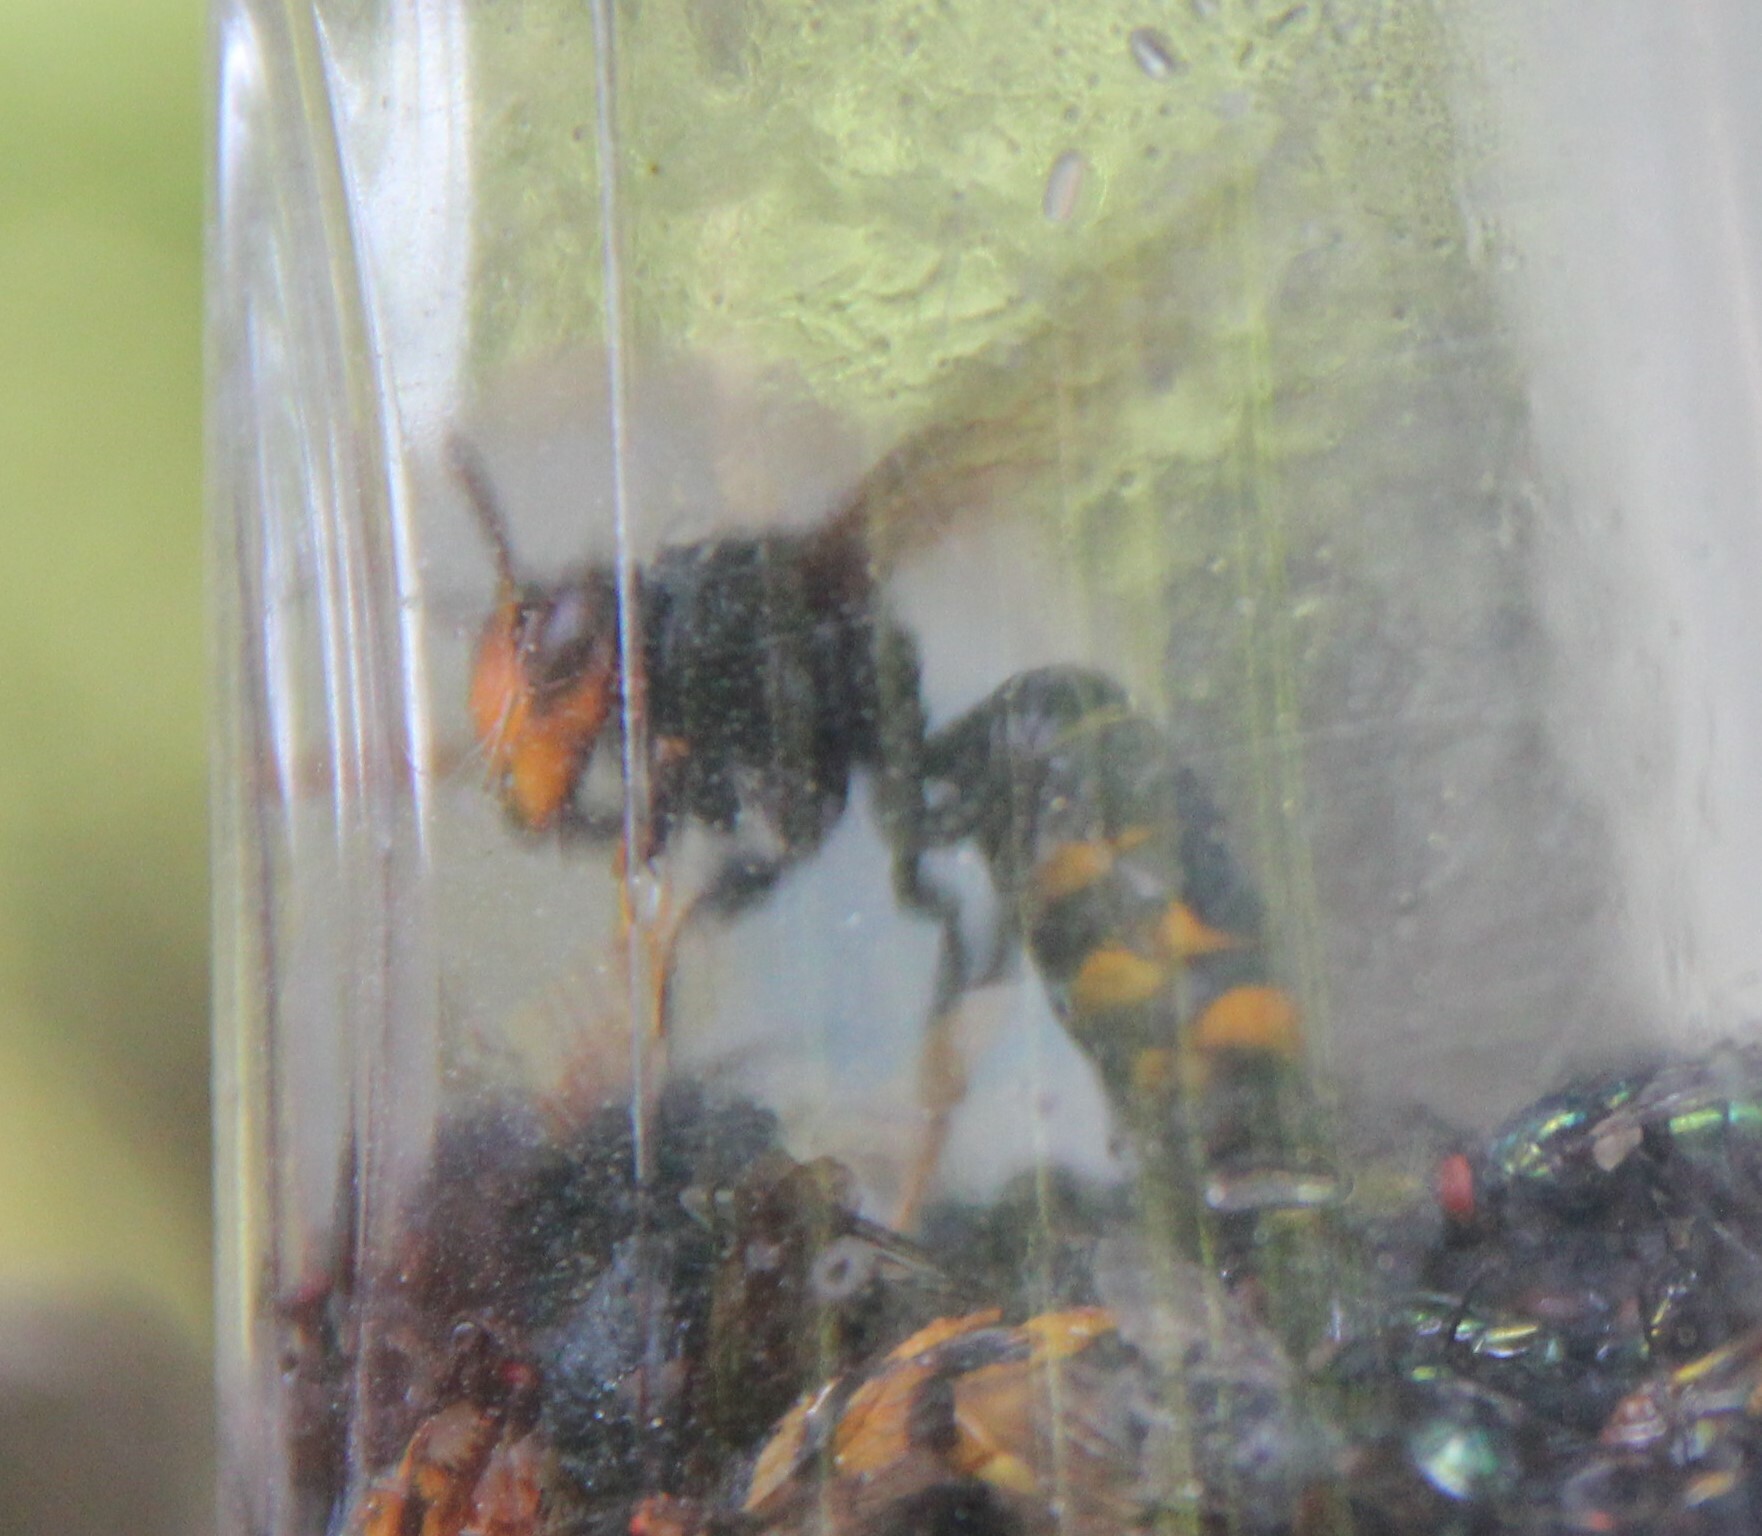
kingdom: Animalia
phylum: Arthropoda
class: Insecta
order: Hymenoptera
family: Vespidae
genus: Vespa
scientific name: Vespa velutina
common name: Asian hornet
